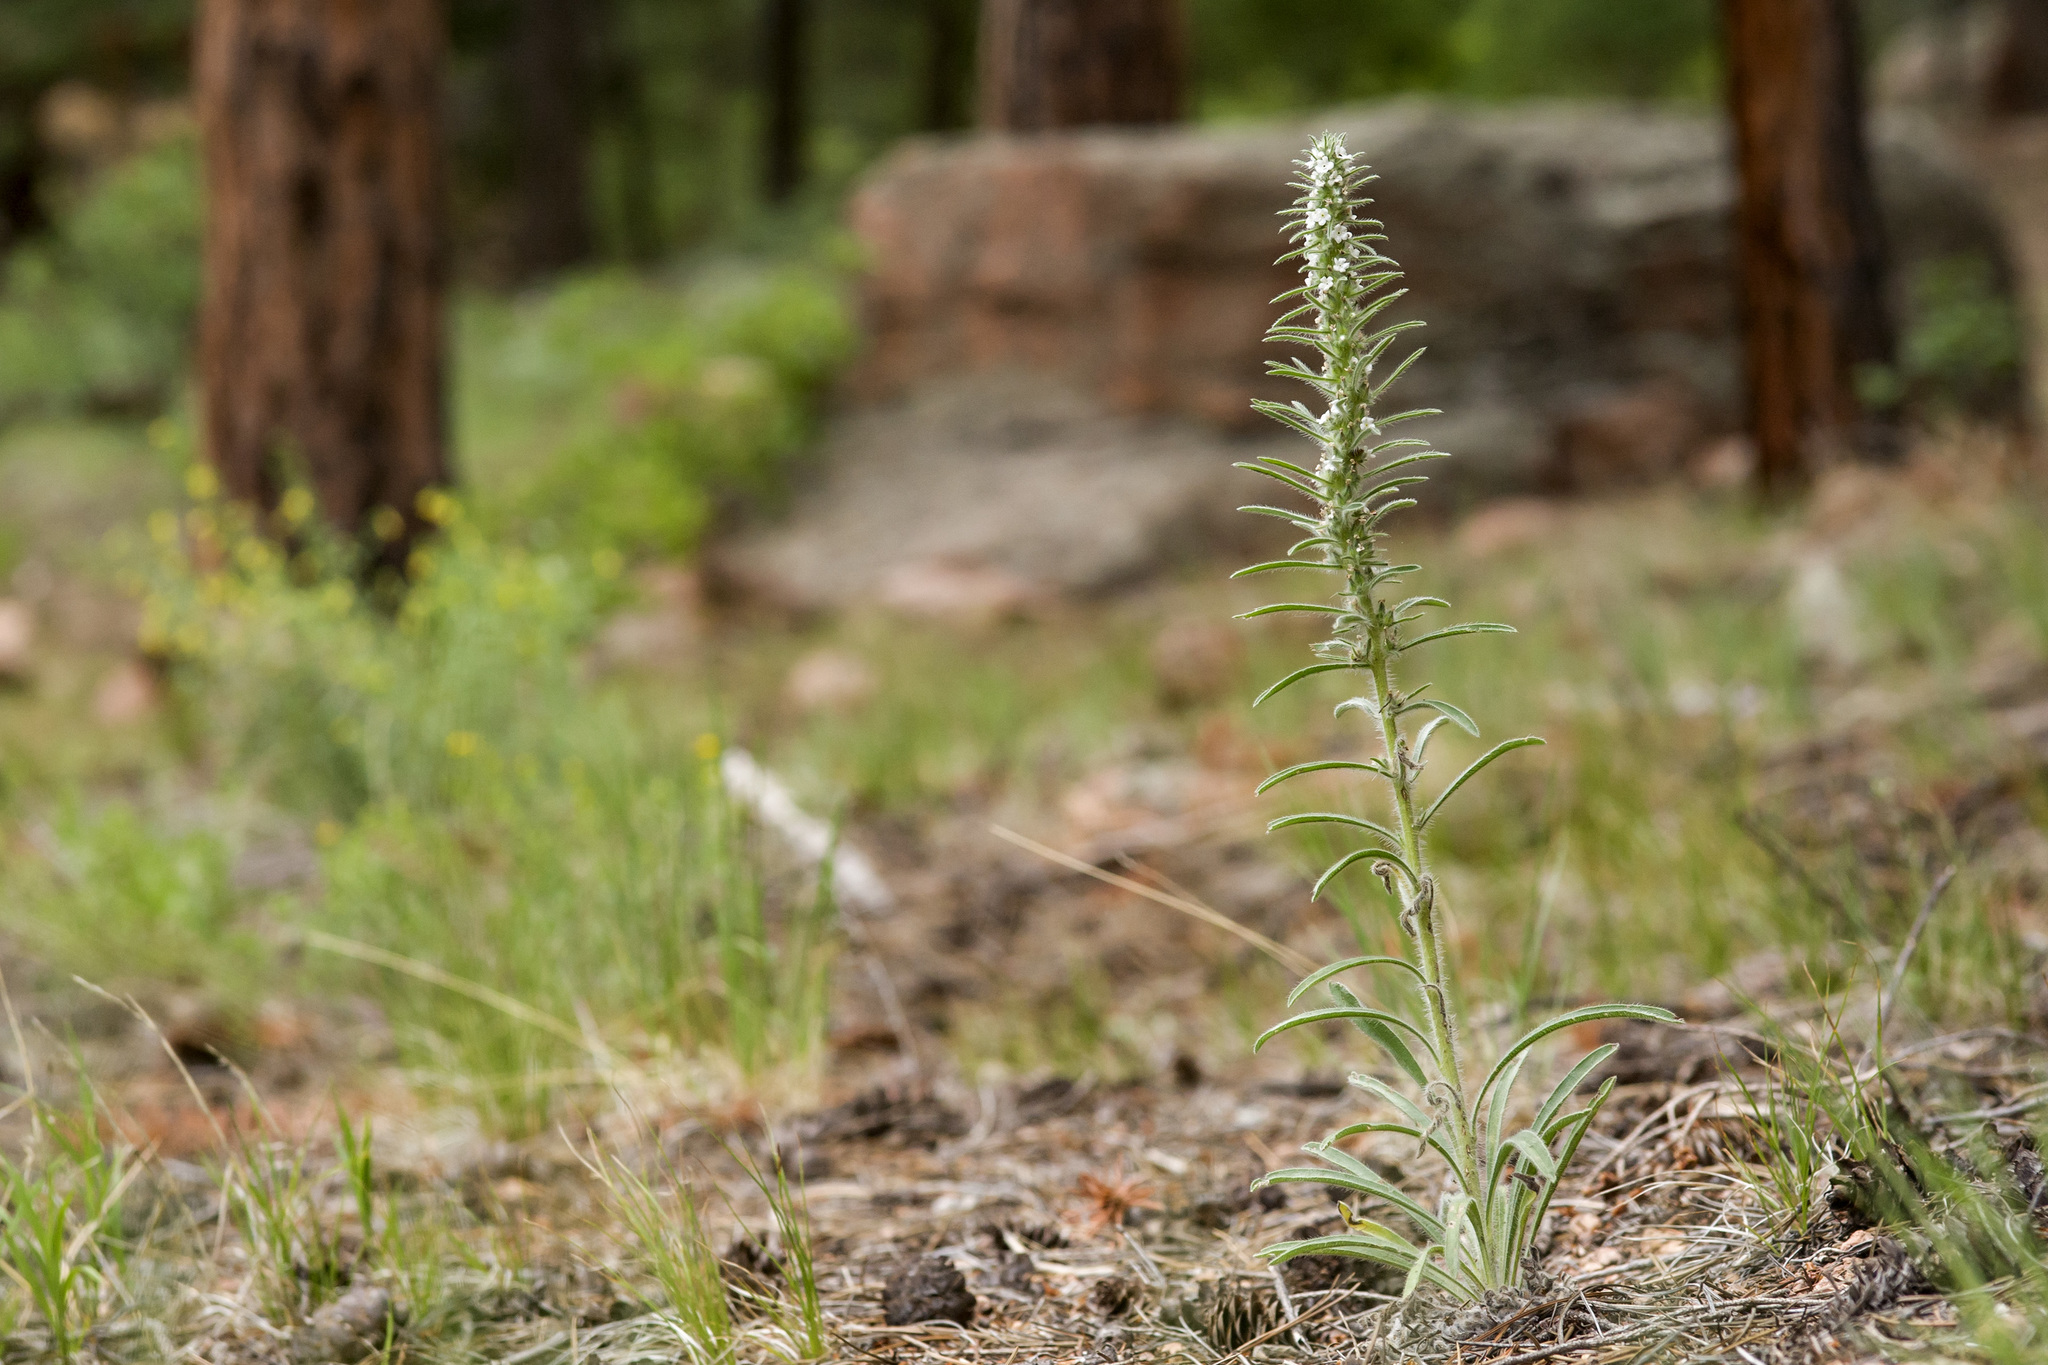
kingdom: Plantae
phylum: Tracheophyta
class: Magnoliopsida
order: Boraginales
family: Boraginaceae
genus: Oreocarya
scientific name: Oreocarya virgata
